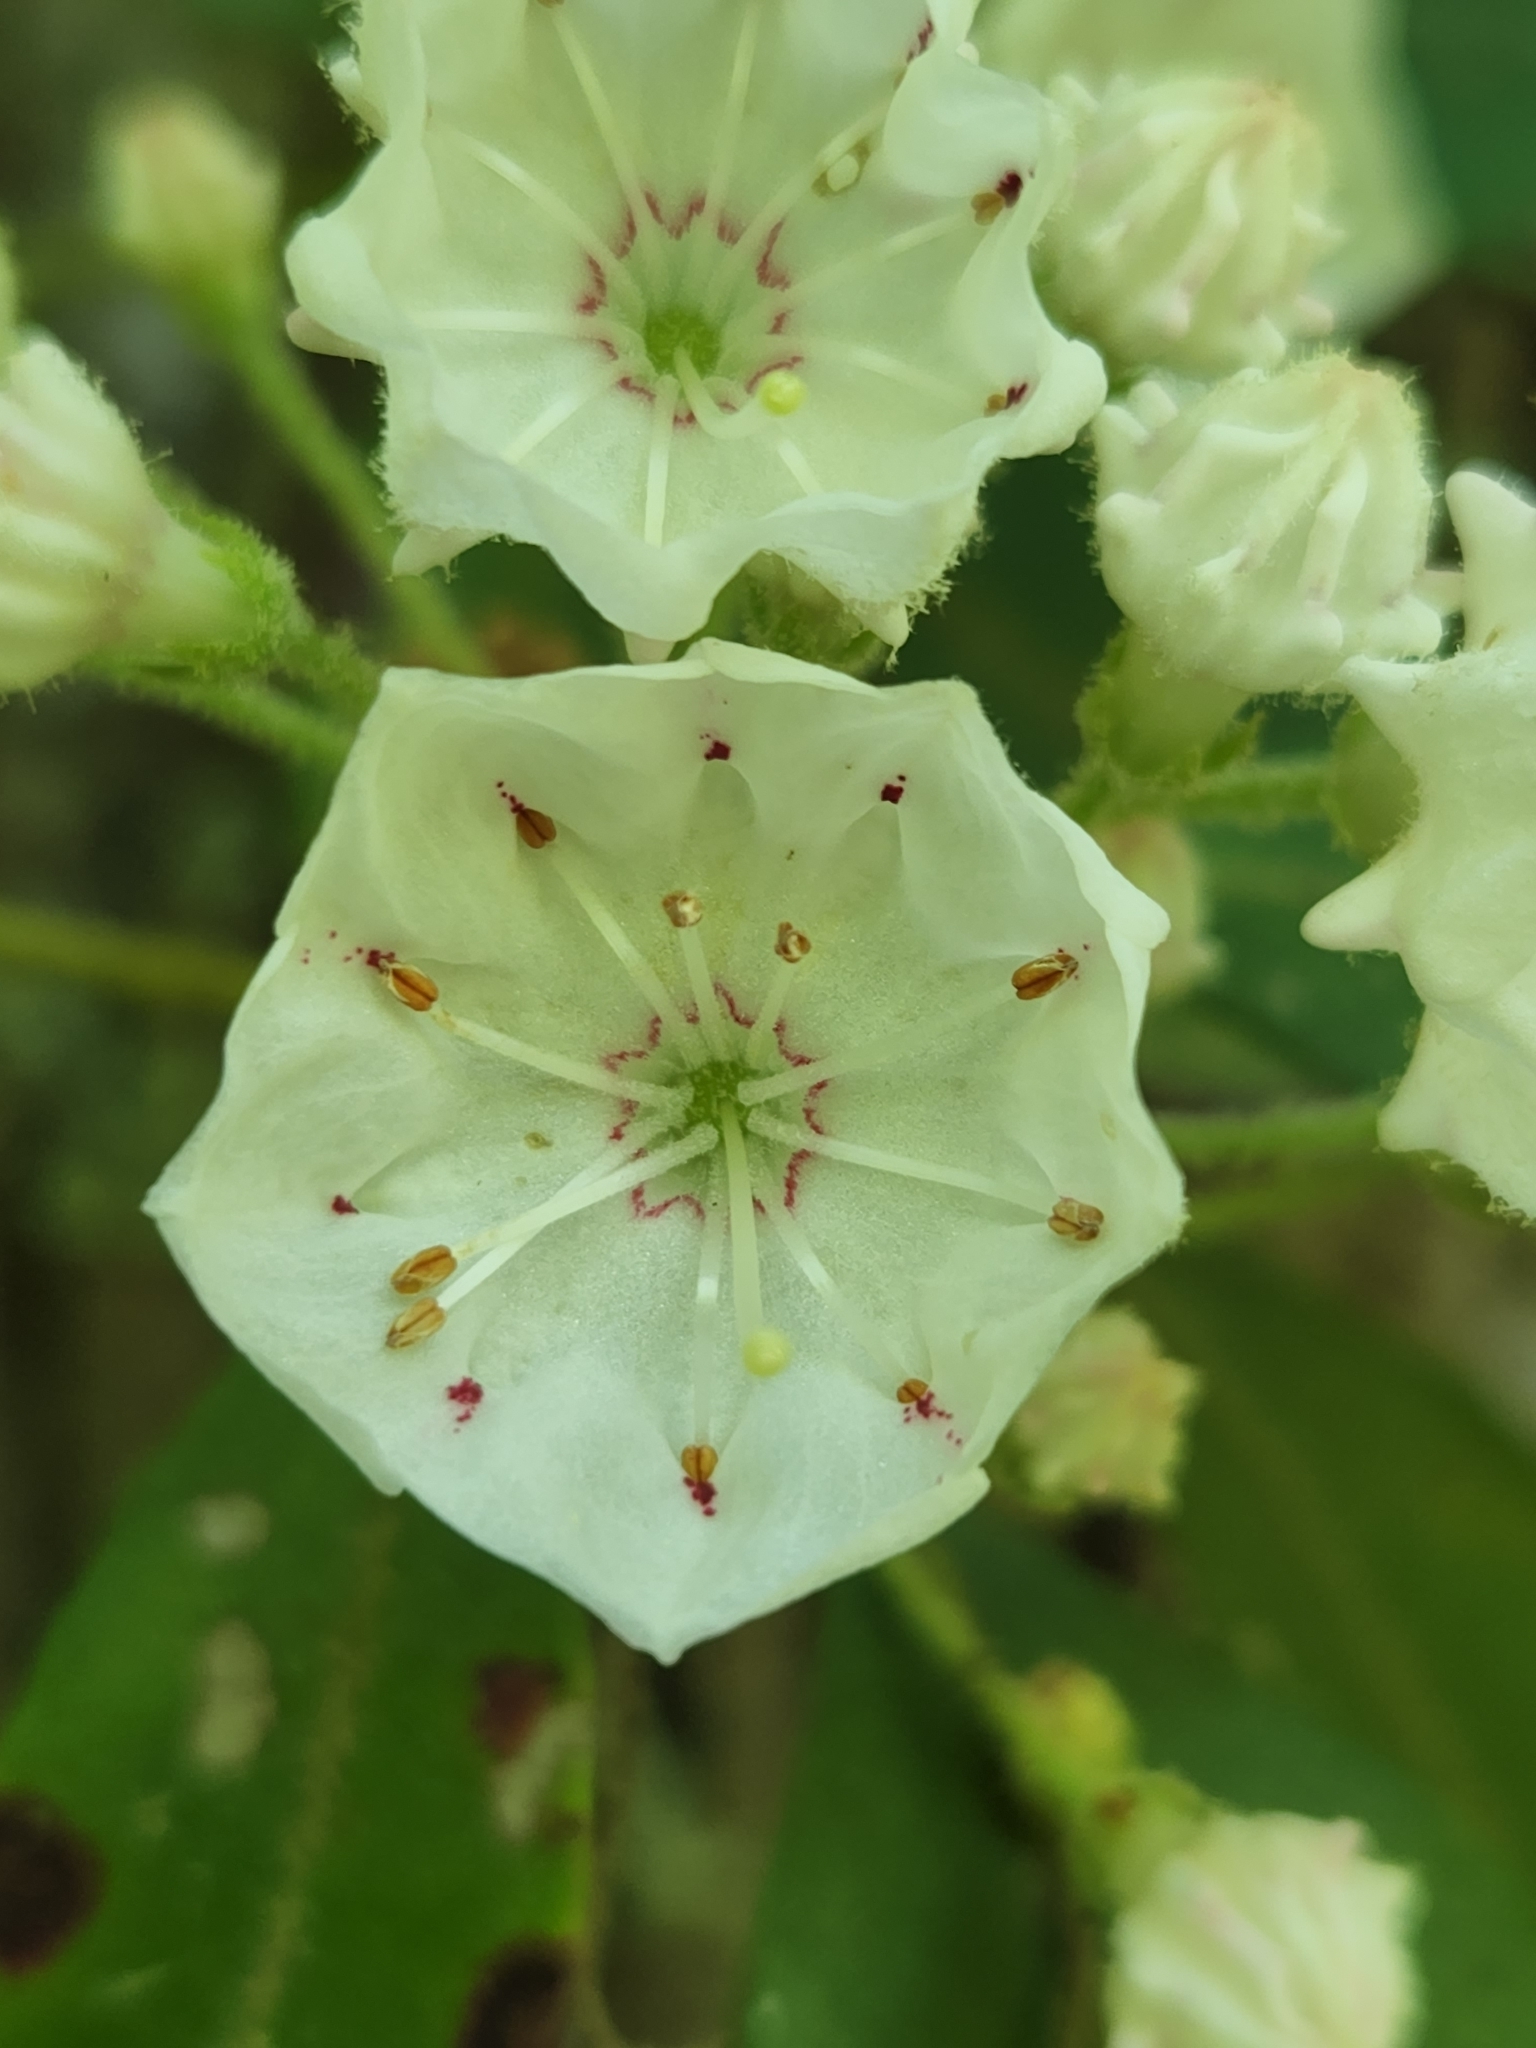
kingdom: Plantae
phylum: Tracheophyta
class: Magnoliopsida
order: Ericales
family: Ericaceae
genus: Kalmia
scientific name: Kalmia latifolia
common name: Mountain-laurel
